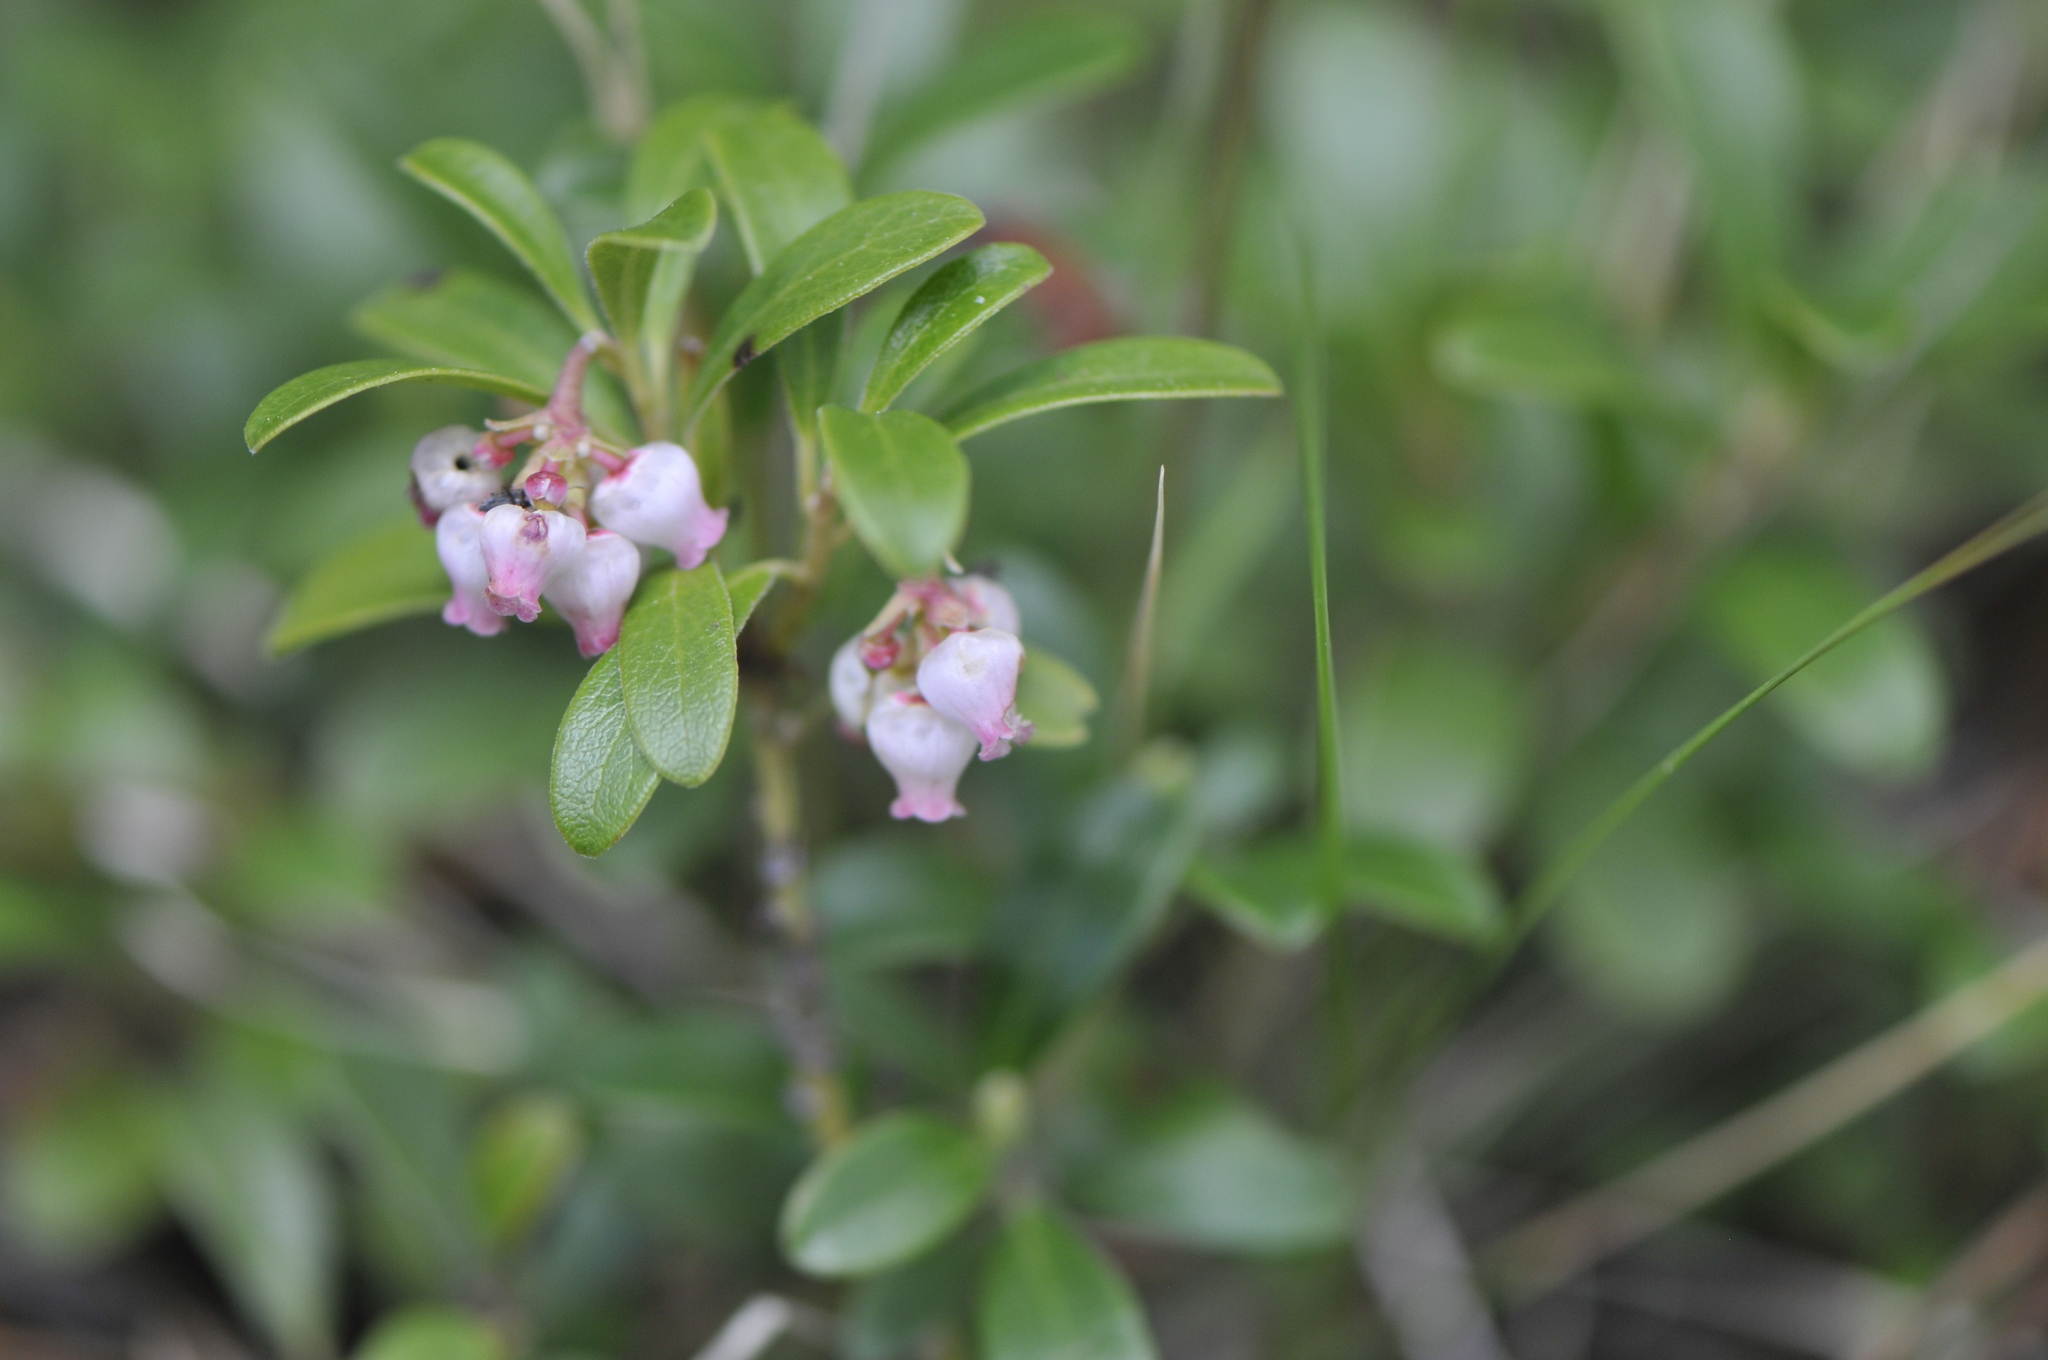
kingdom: Plantae
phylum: Tracheophyta
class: Magnoliopsida
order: Ericales
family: Ericaceae
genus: Arctostaphylos
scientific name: Arctostaphylos uva-ursi
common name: Bearberry
